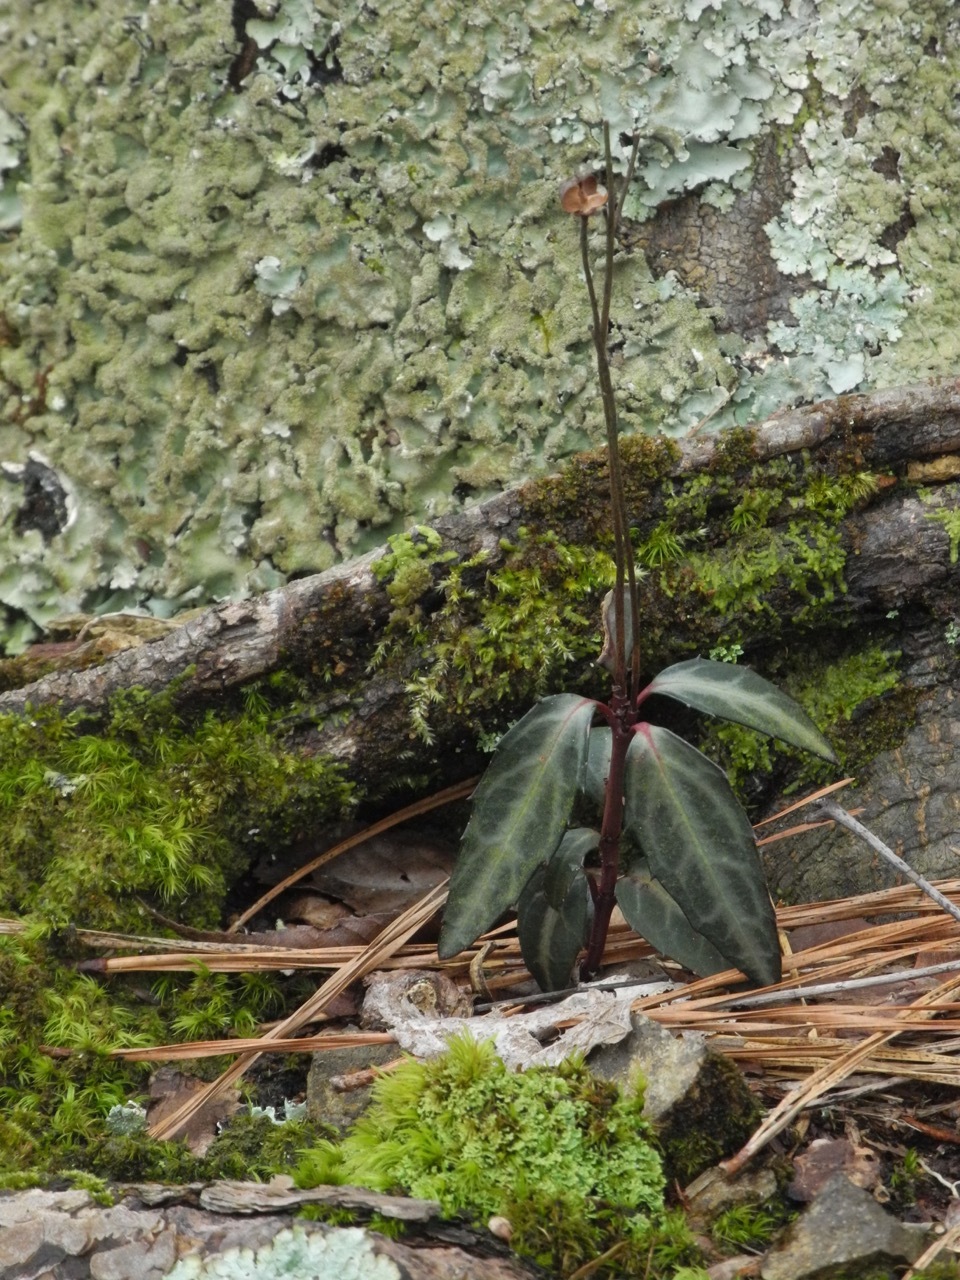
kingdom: Plantae
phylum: Tracheophyta
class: Magnoliopsida
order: Ericales
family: Ericaceae
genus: Chimaphila
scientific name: Chimaphila maculata
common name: Spotted pipsissewa
